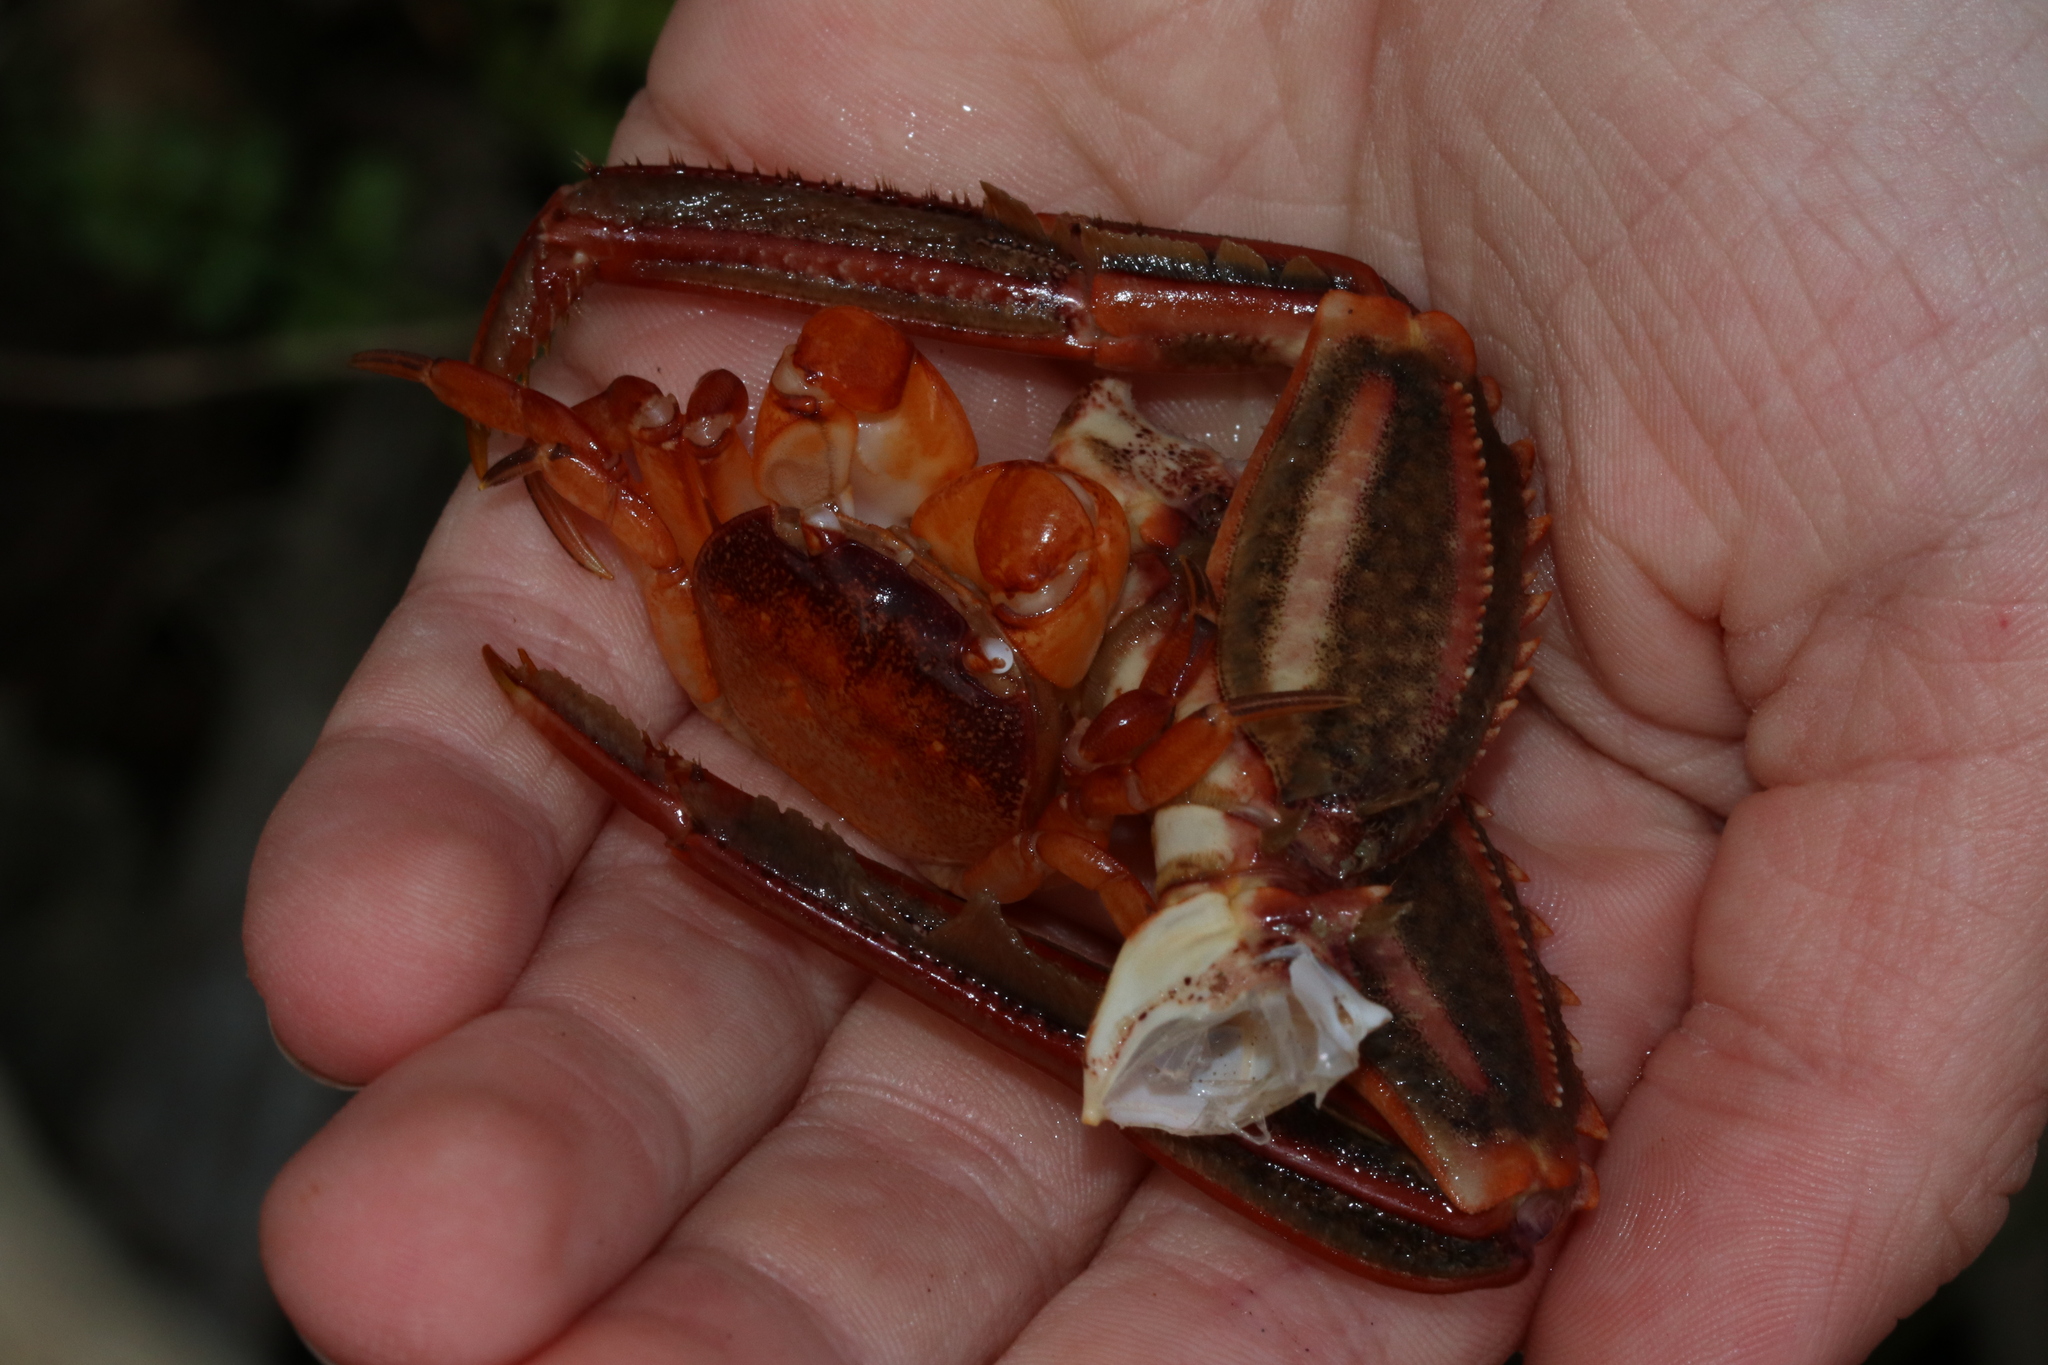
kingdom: Animalia
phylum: Arthropoda
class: Malacostraca
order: Decapoda
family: Varunidae
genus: Cyclograpsus
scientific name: Cyclograpsus lavauxi
